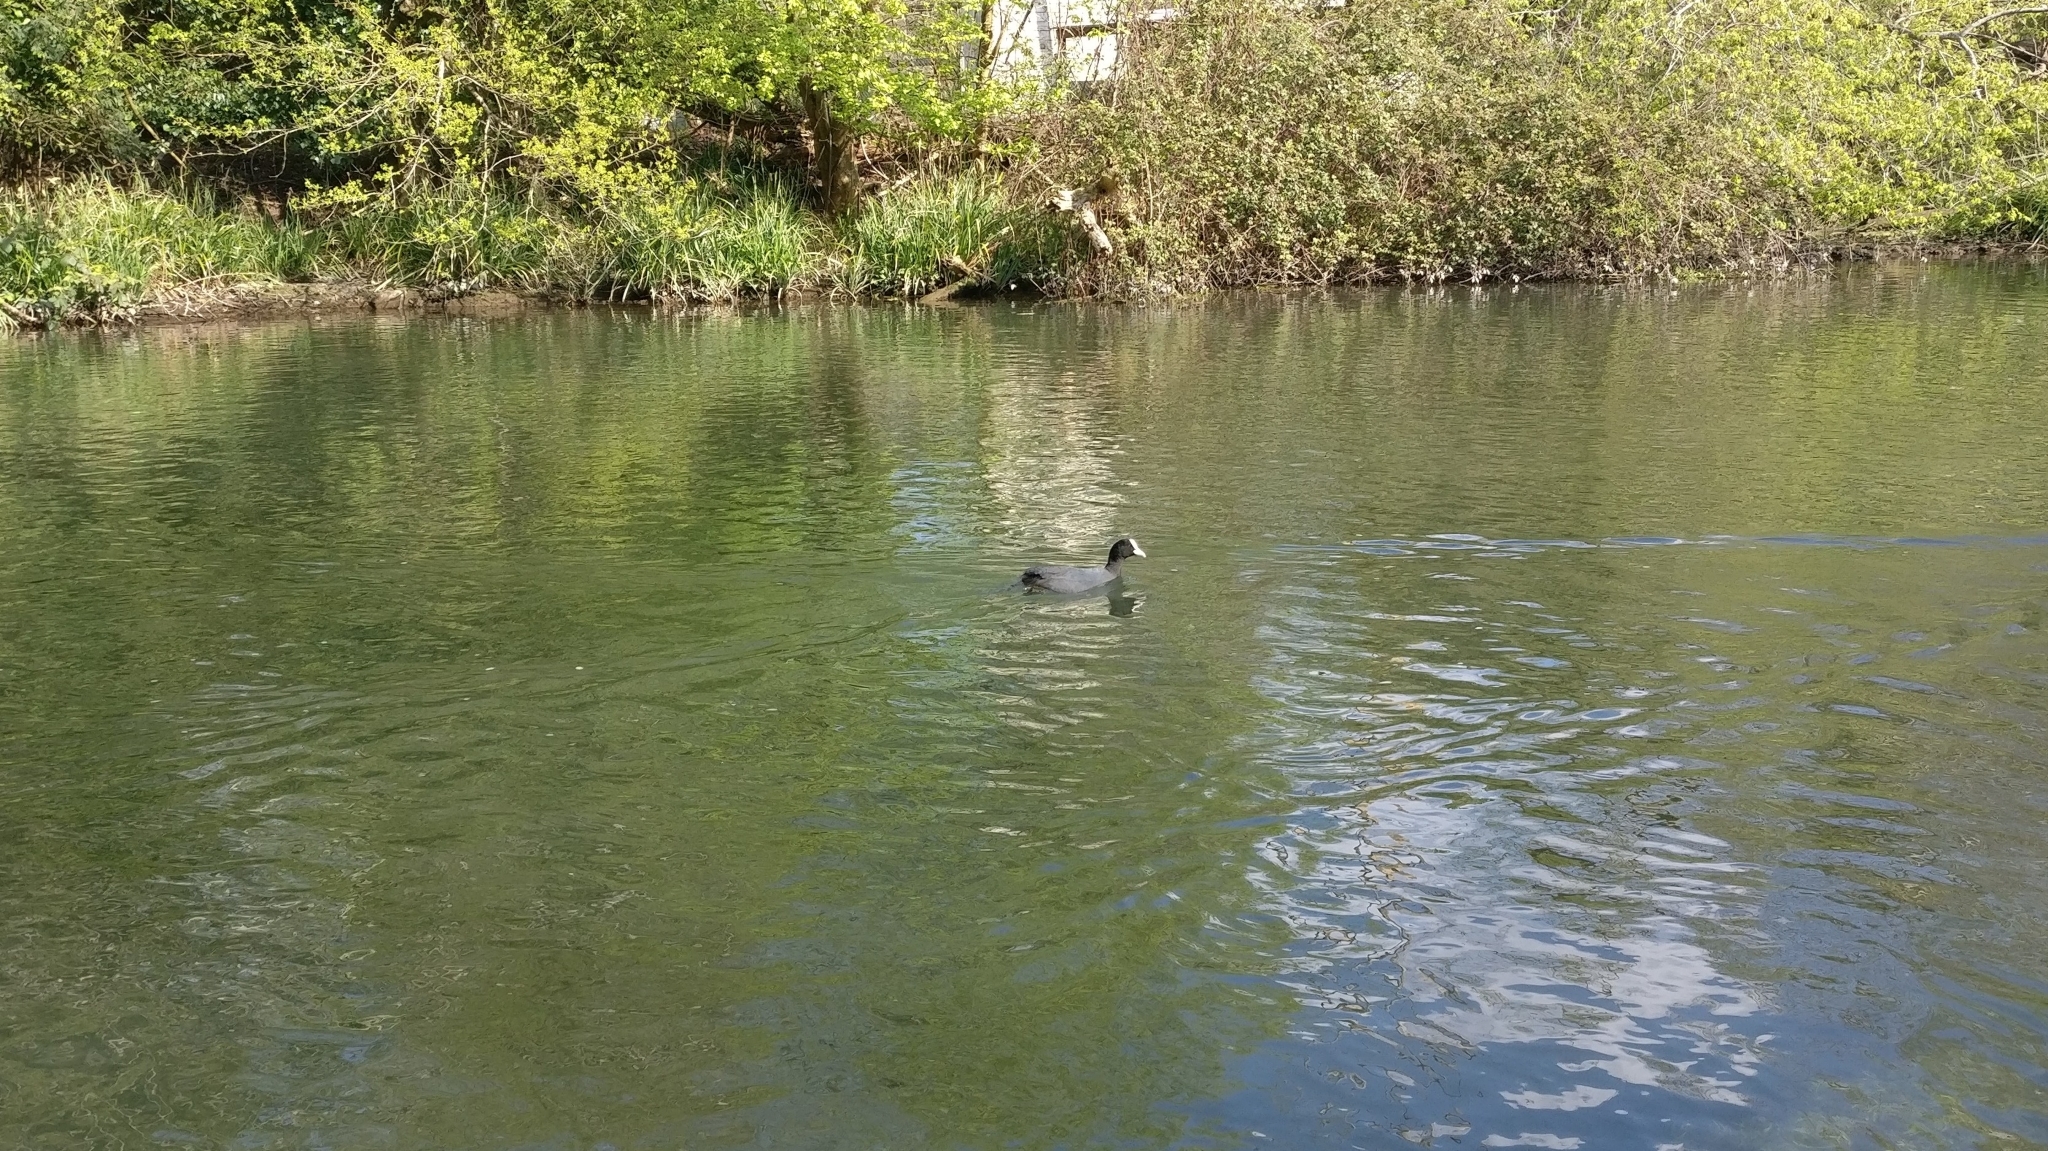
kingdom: Animalia
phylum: Chordata
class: Aves
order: Gruiformes
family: Rallidae
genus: Fulica
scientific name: Fulica atra
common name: Eurasian coot
